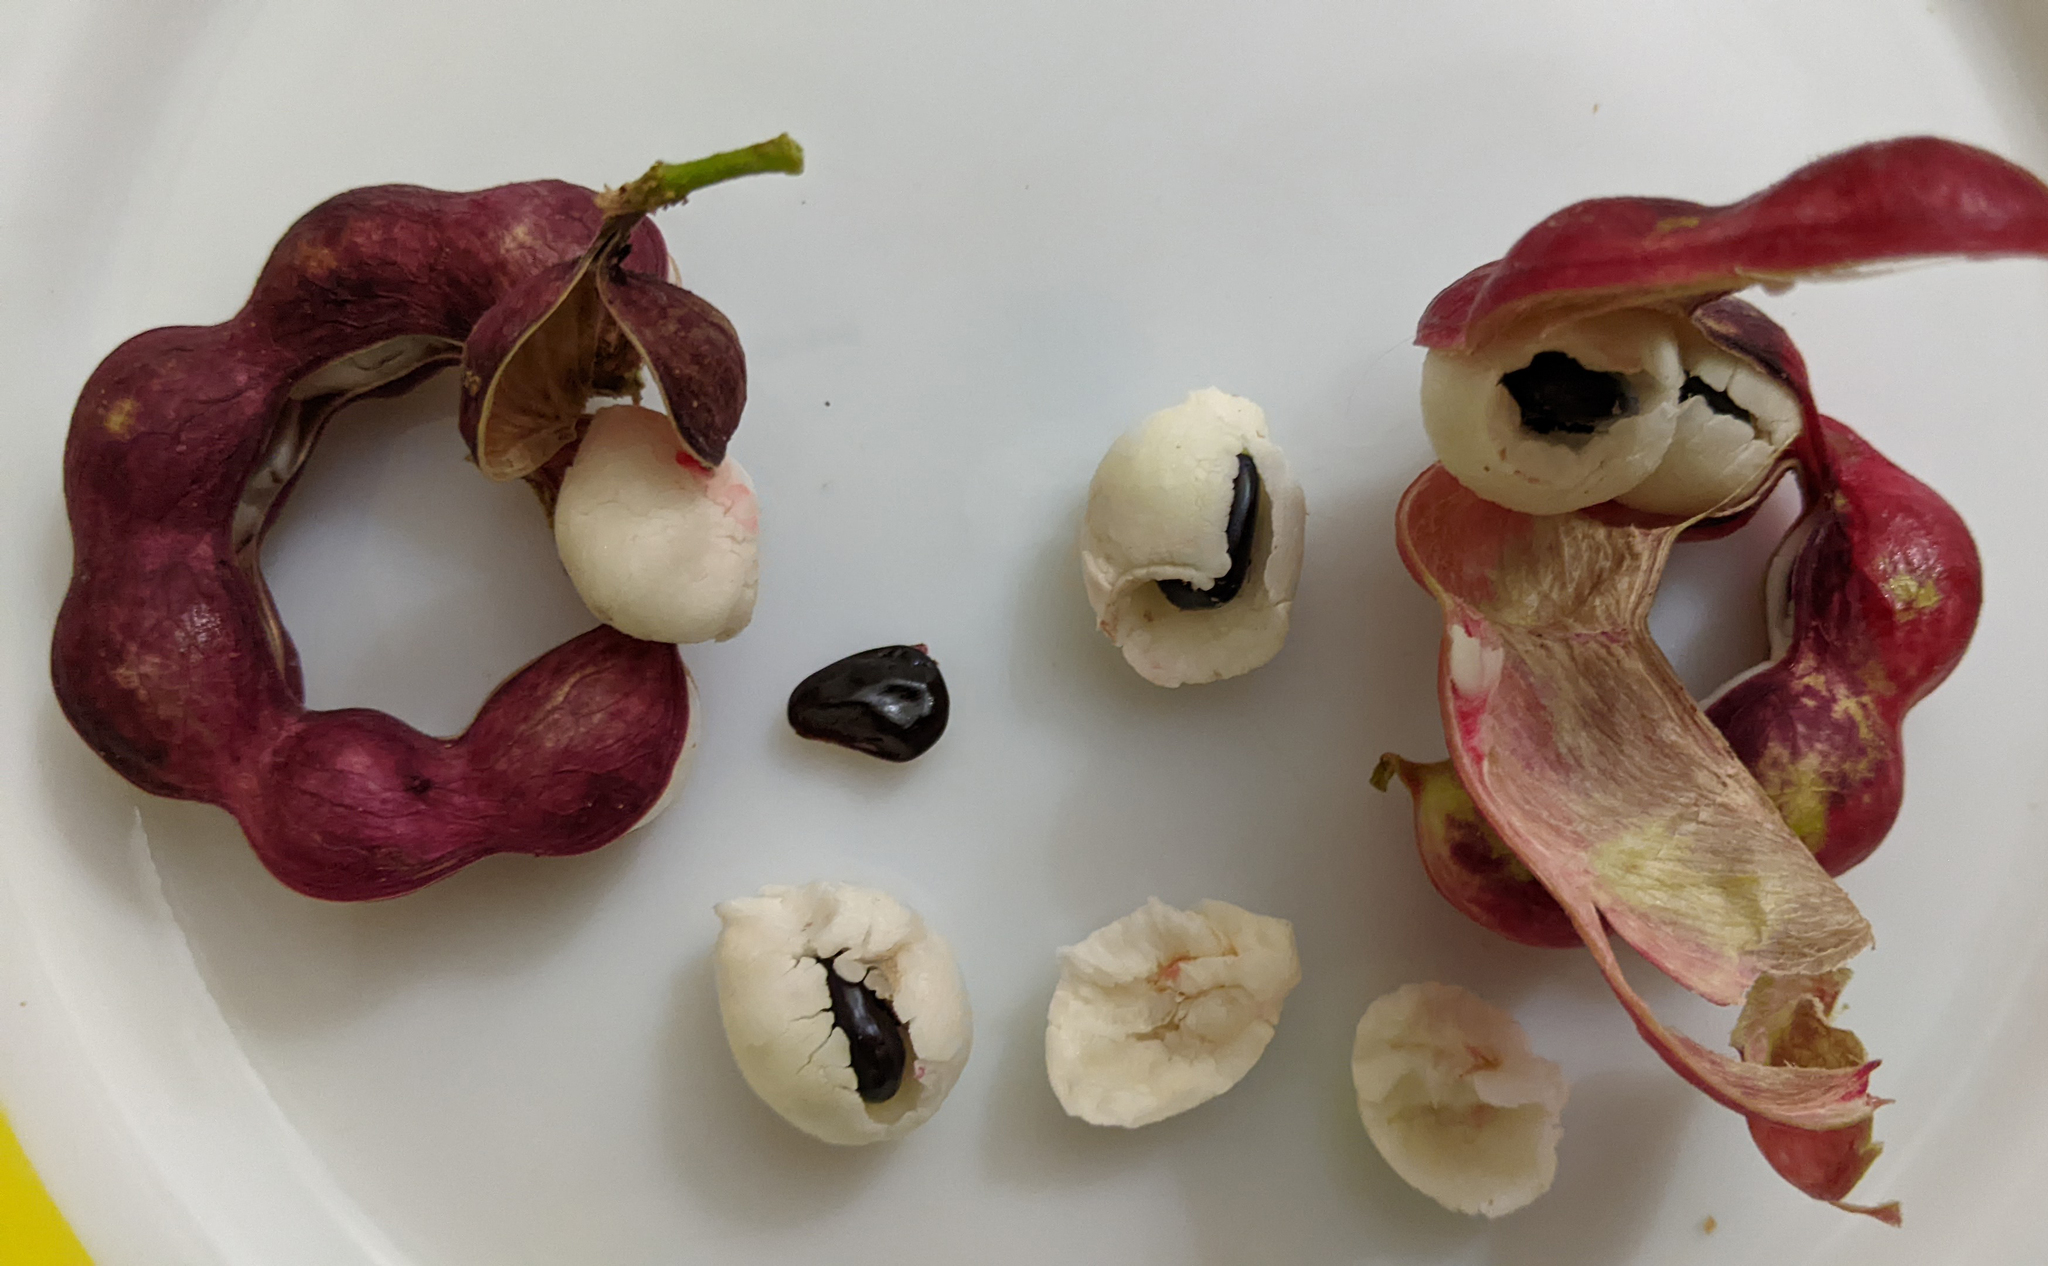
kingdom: Plantae
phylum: Tracheophyta
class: Magnoliopsida
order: Fabales
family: Fabaceae
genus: Pithecellobium
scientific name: Pithecellobium dulce
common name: Monkeypod
